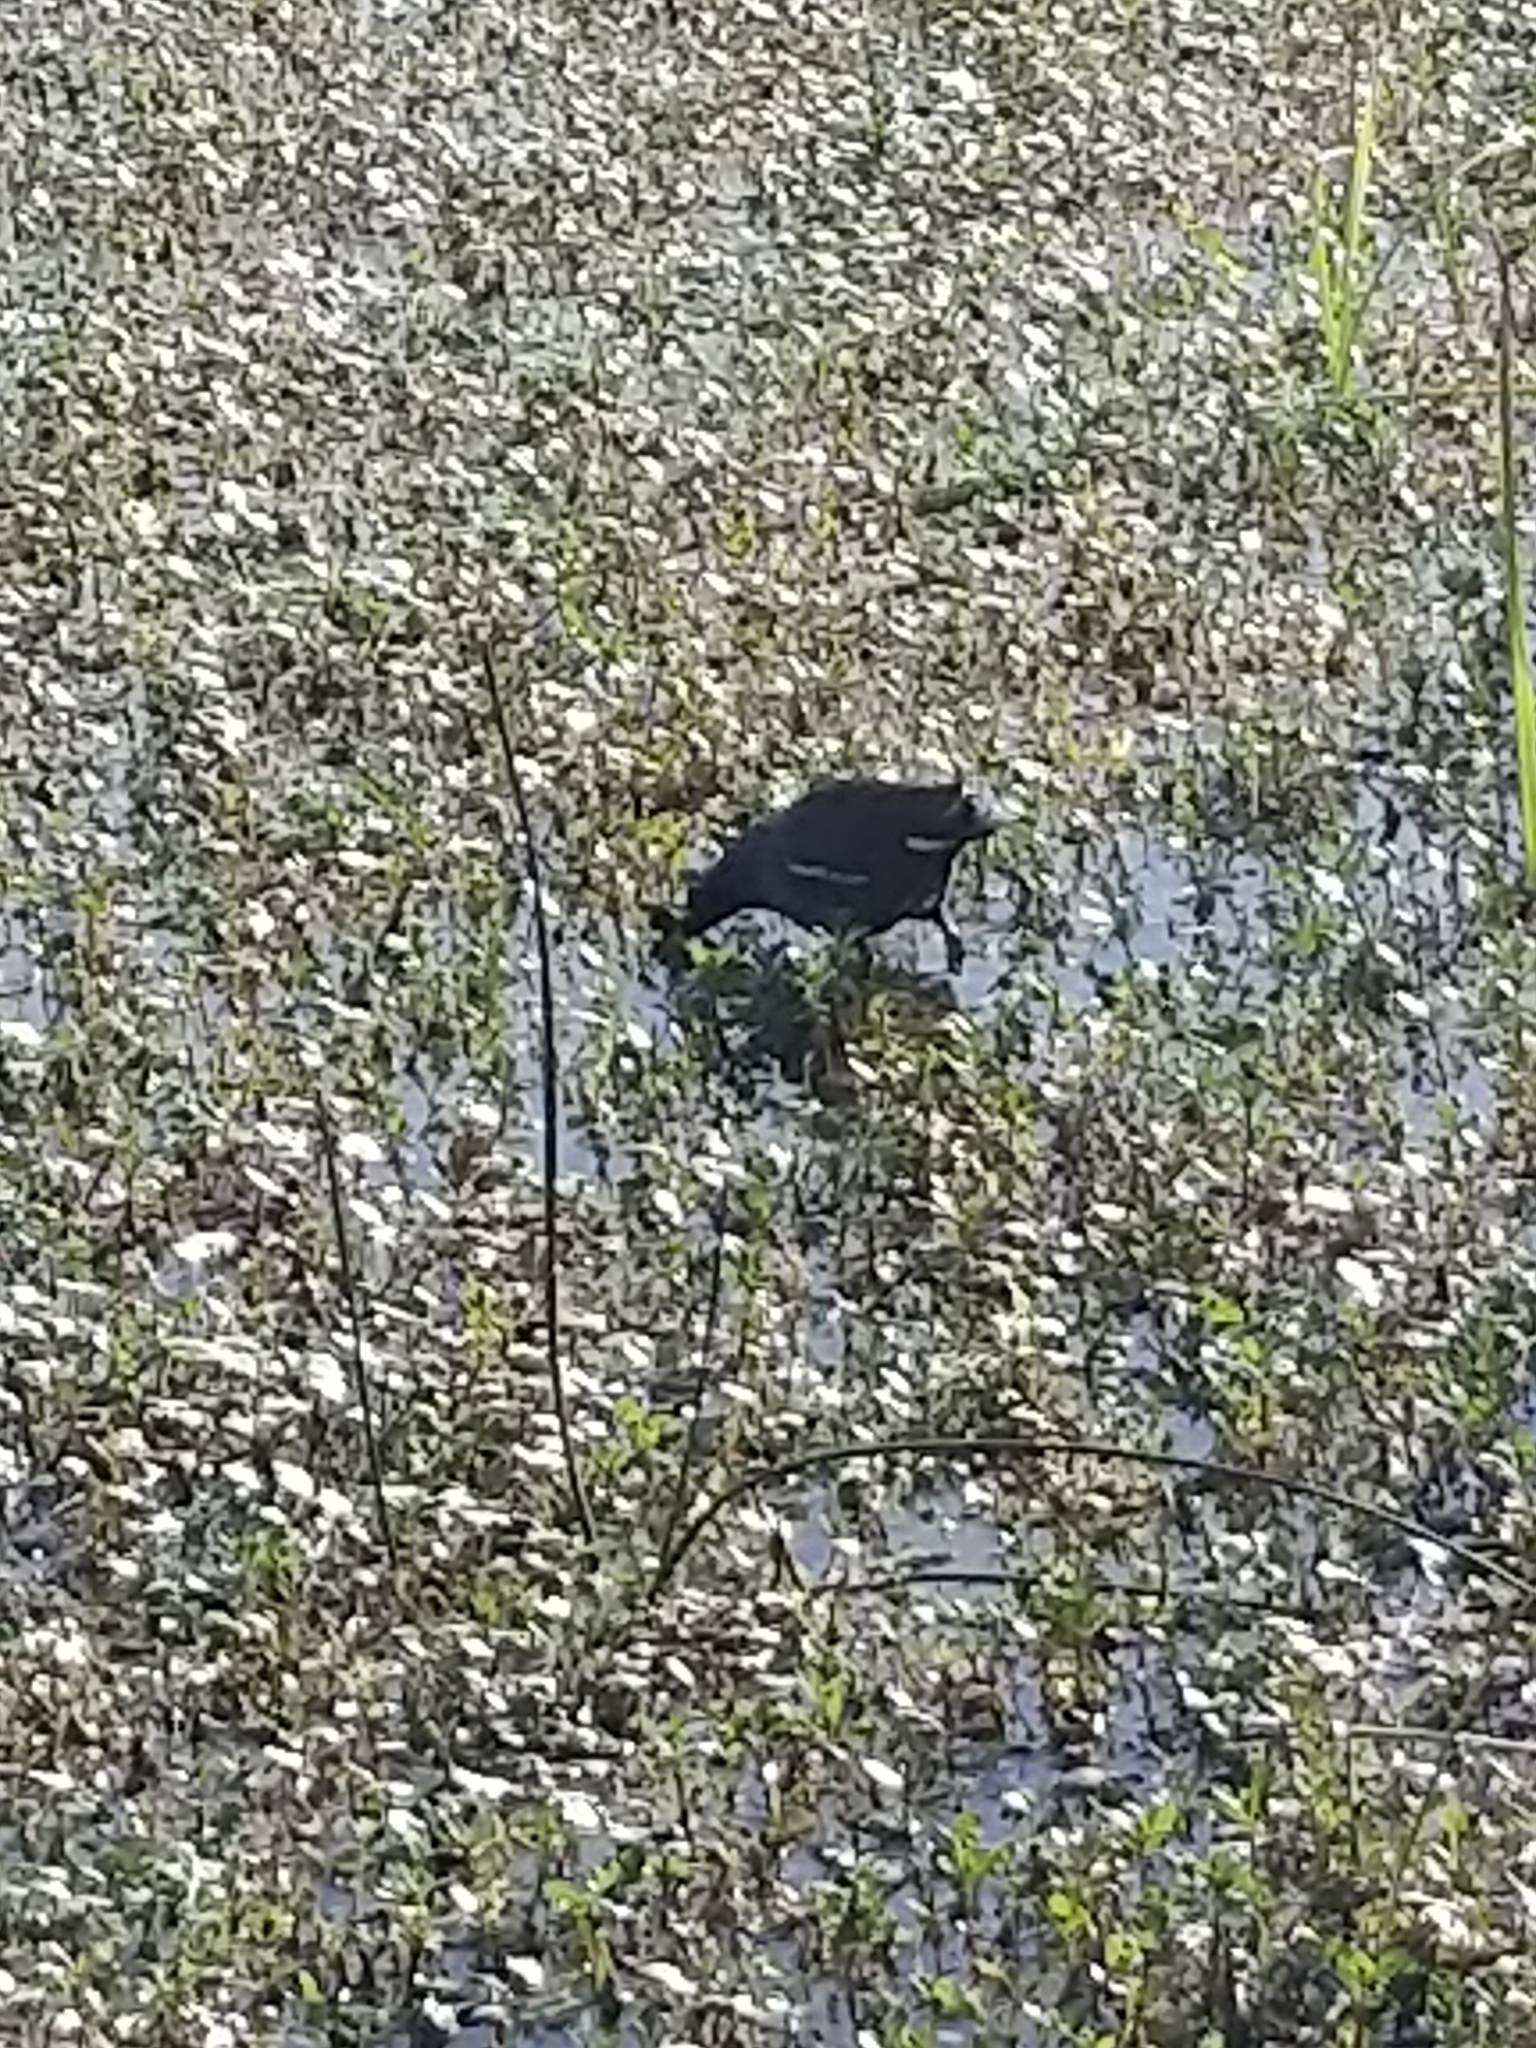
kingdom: Animalia
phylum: Chordata
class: Aves
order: Gruiformes
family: Rallidae
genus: Gallinula
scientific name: Gallinula chloropus
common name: Common moorhen
